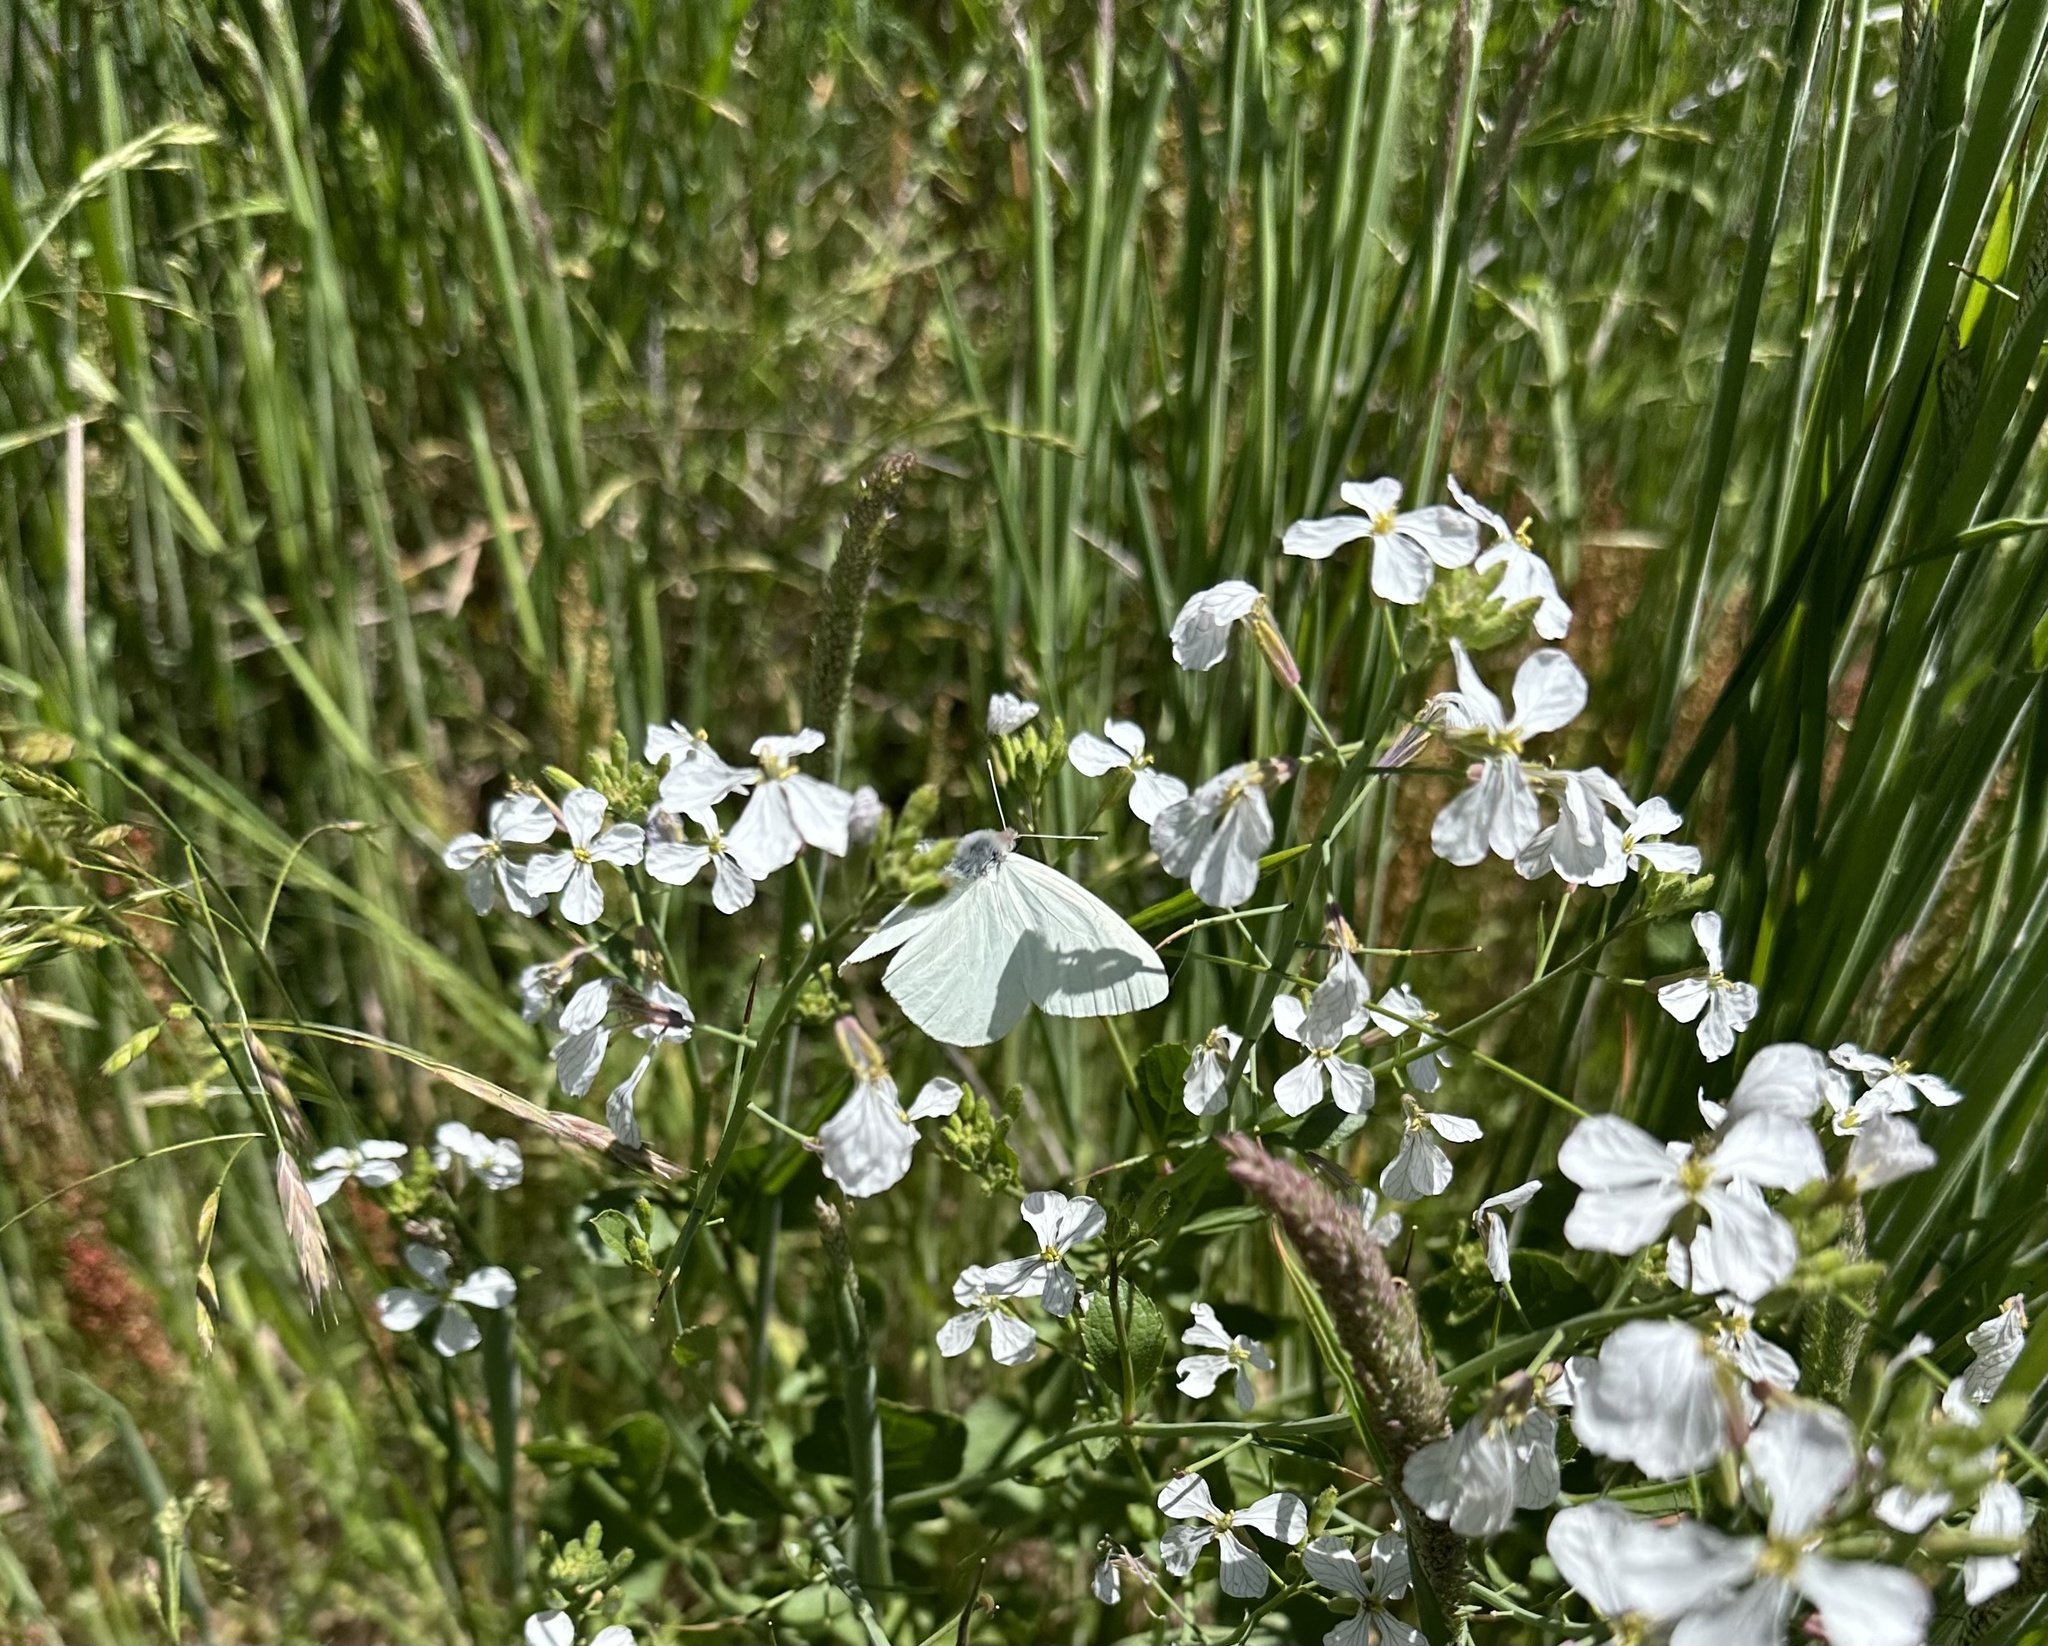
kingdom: Animalia
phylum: Arthropoda
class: Insecta
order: Lepidoptera
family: Pieridae
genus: Mathania
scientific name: Mathania leucothea
